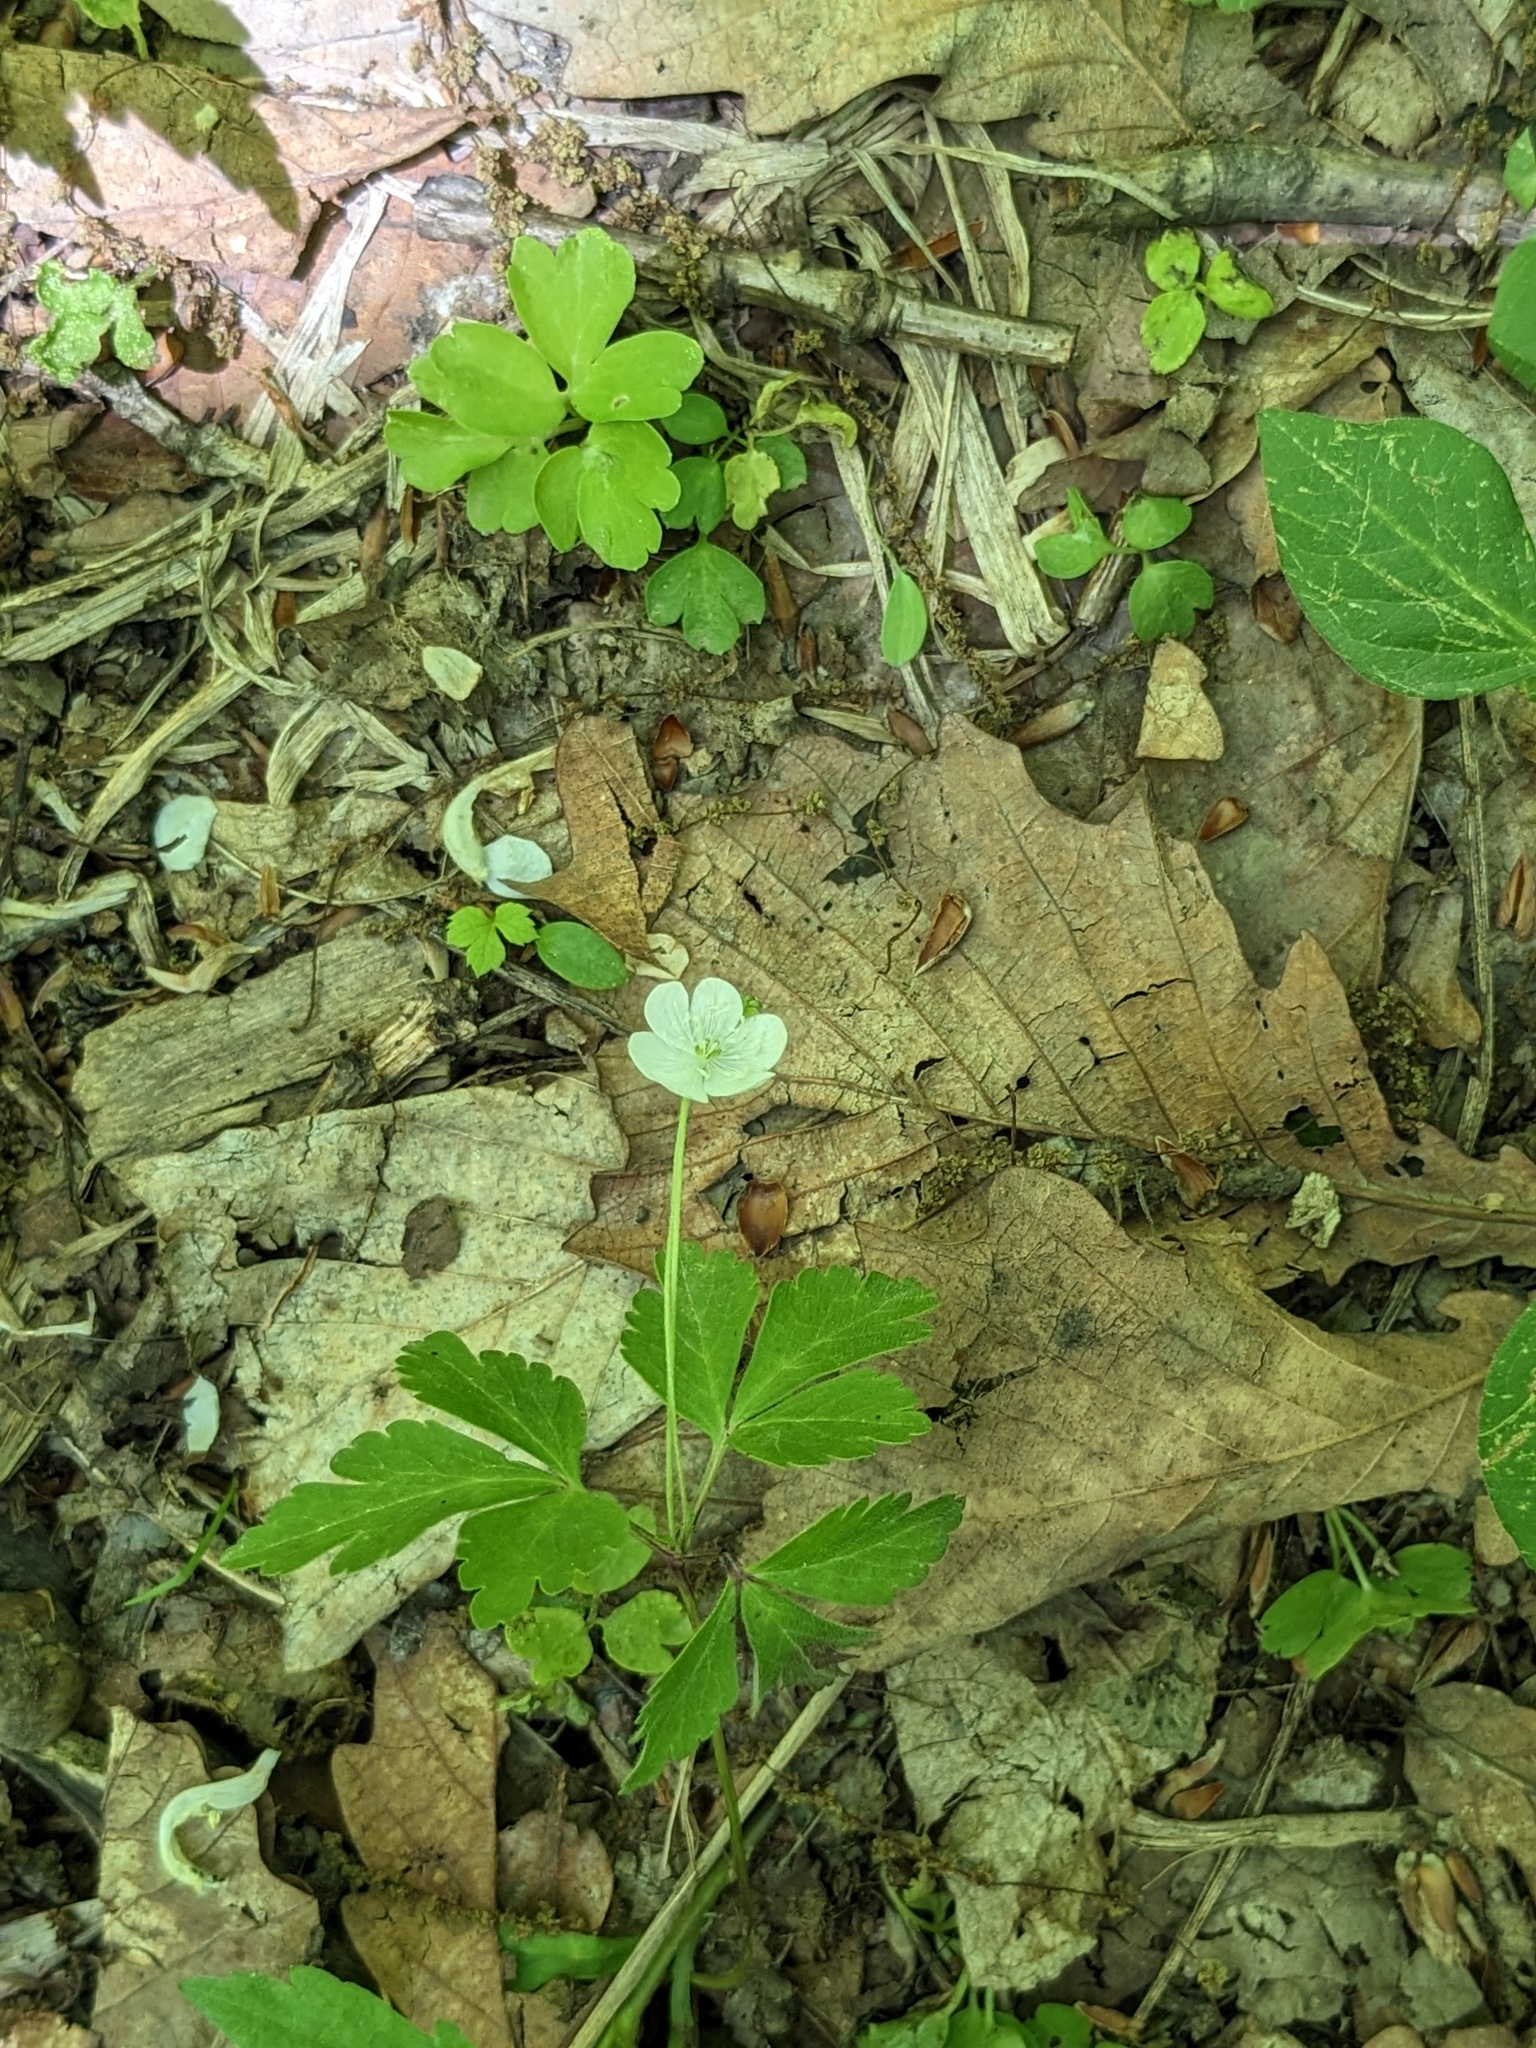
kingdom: Plantae
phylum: Tracheophyta
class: Magnoliopsida
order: Ranunculales
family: Ranunculaceae
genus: Anemone
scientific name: Anemone umbrosa
